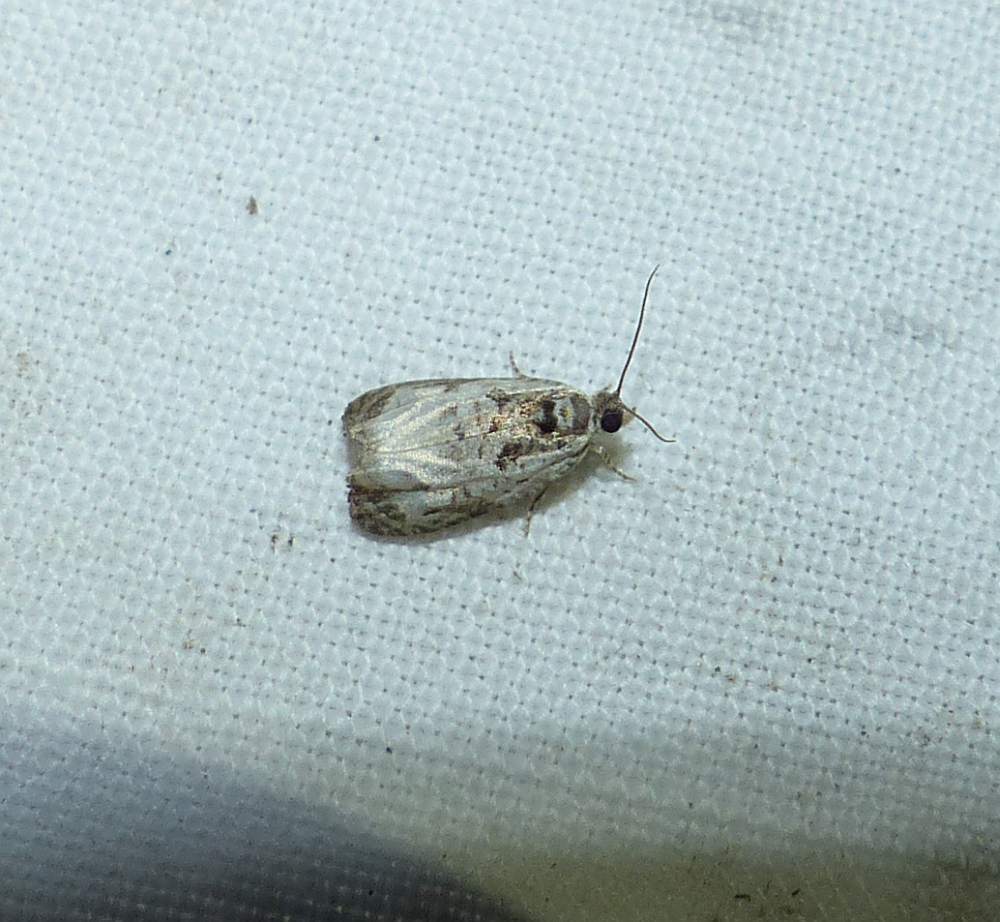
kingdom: Animalia
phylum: Arthropoda
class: Insecta
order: Lepidoptera
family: Tortricidae
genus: Olethreutes
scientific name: Olethreutes malana
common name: Malana leafroller moth
